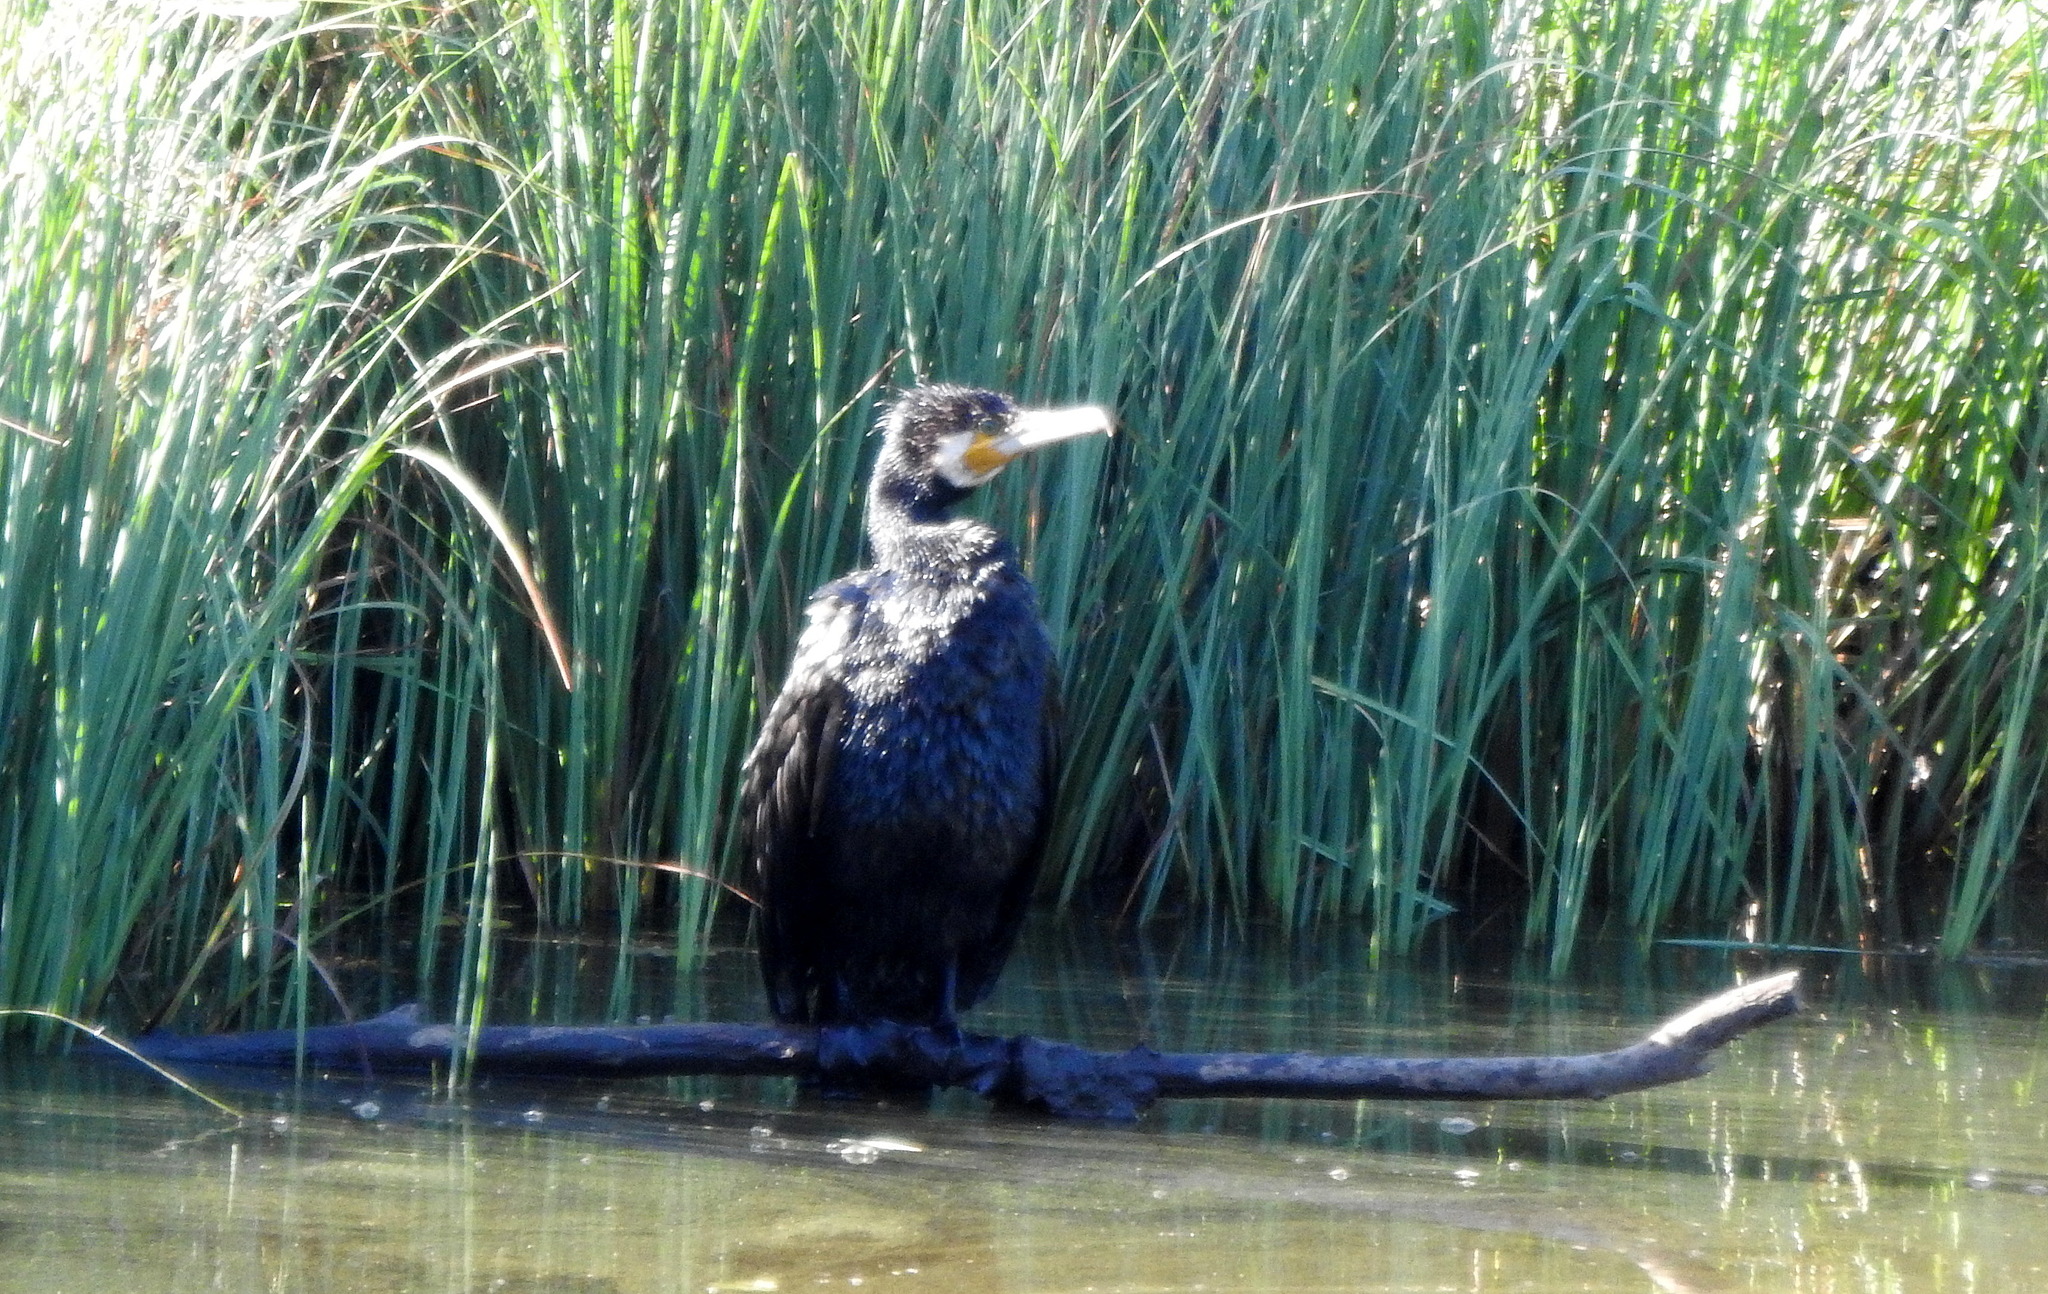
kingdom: Animalia
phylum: Chordata
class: Aves
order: Suliformes
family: Phalacrocoracidae
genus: Phalacrocorax
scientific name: Phalacrocorax carbo
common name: Great cormorant
